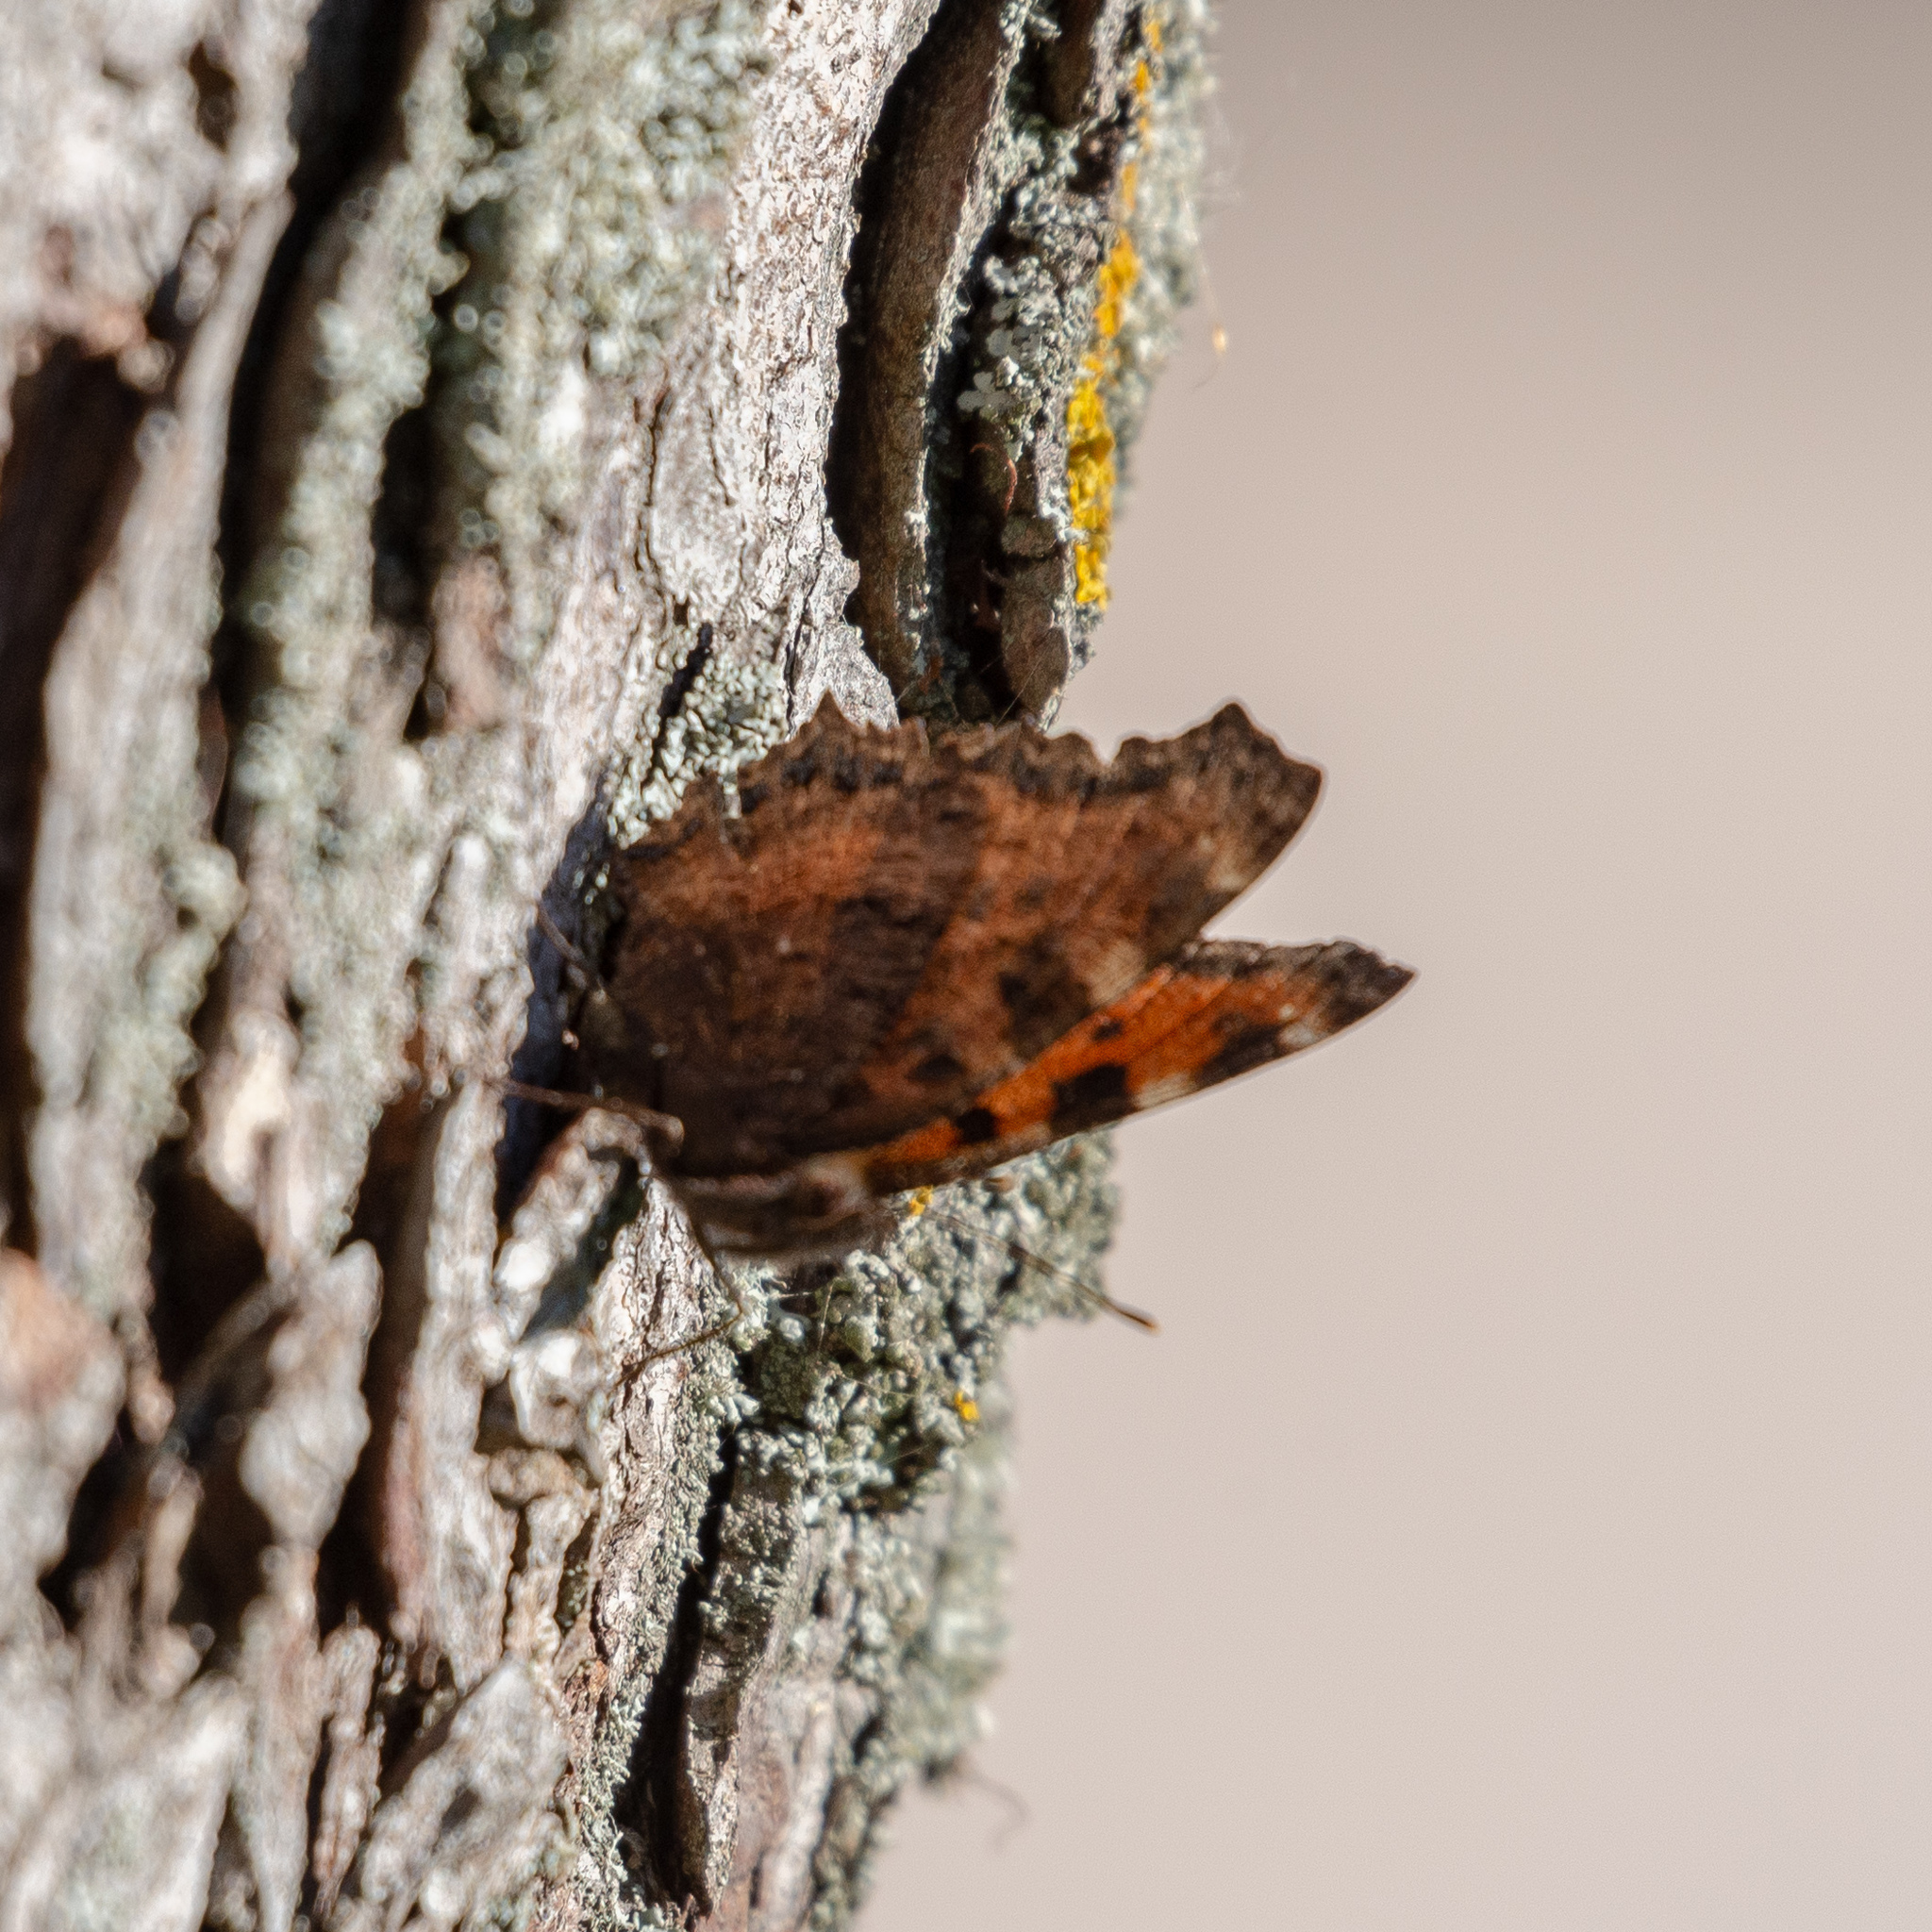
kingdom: Animalia
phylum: Arthropoda
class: Insecta
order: Lepidoptera
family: Nymphalidae
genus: Nymphalis
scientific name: Nymphalis polychloros
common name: Large tortoiseshell
